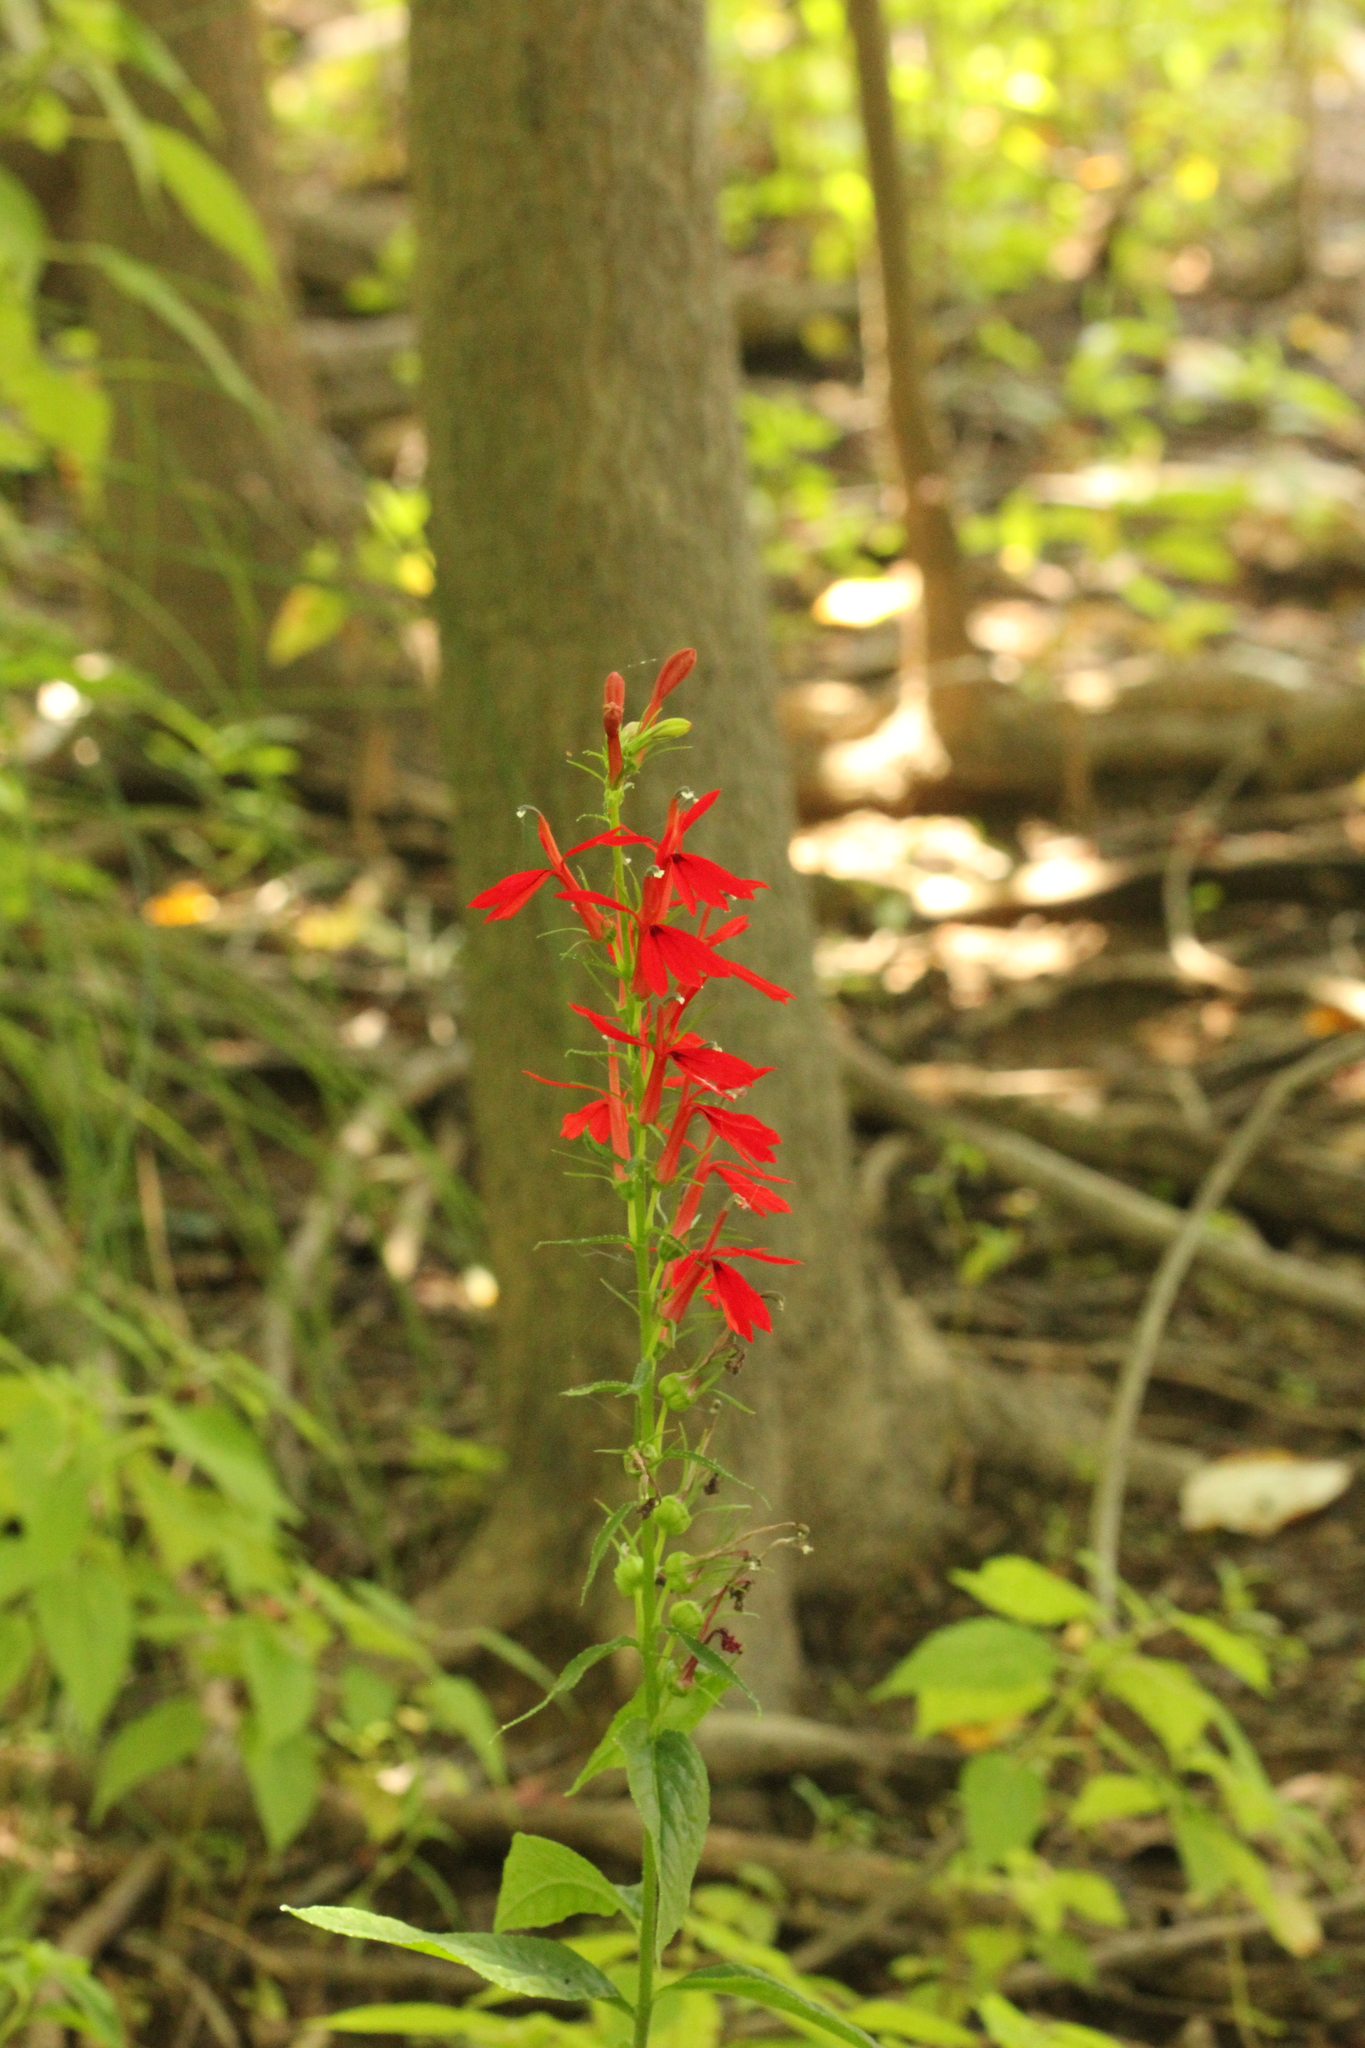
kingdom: Plantae
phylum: Tracheophyta
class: Magnoliopsida
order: Asterales
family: Campanulaceae
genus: Lobelia
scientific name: Lobelia cardinalis
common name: Cardinal flower
